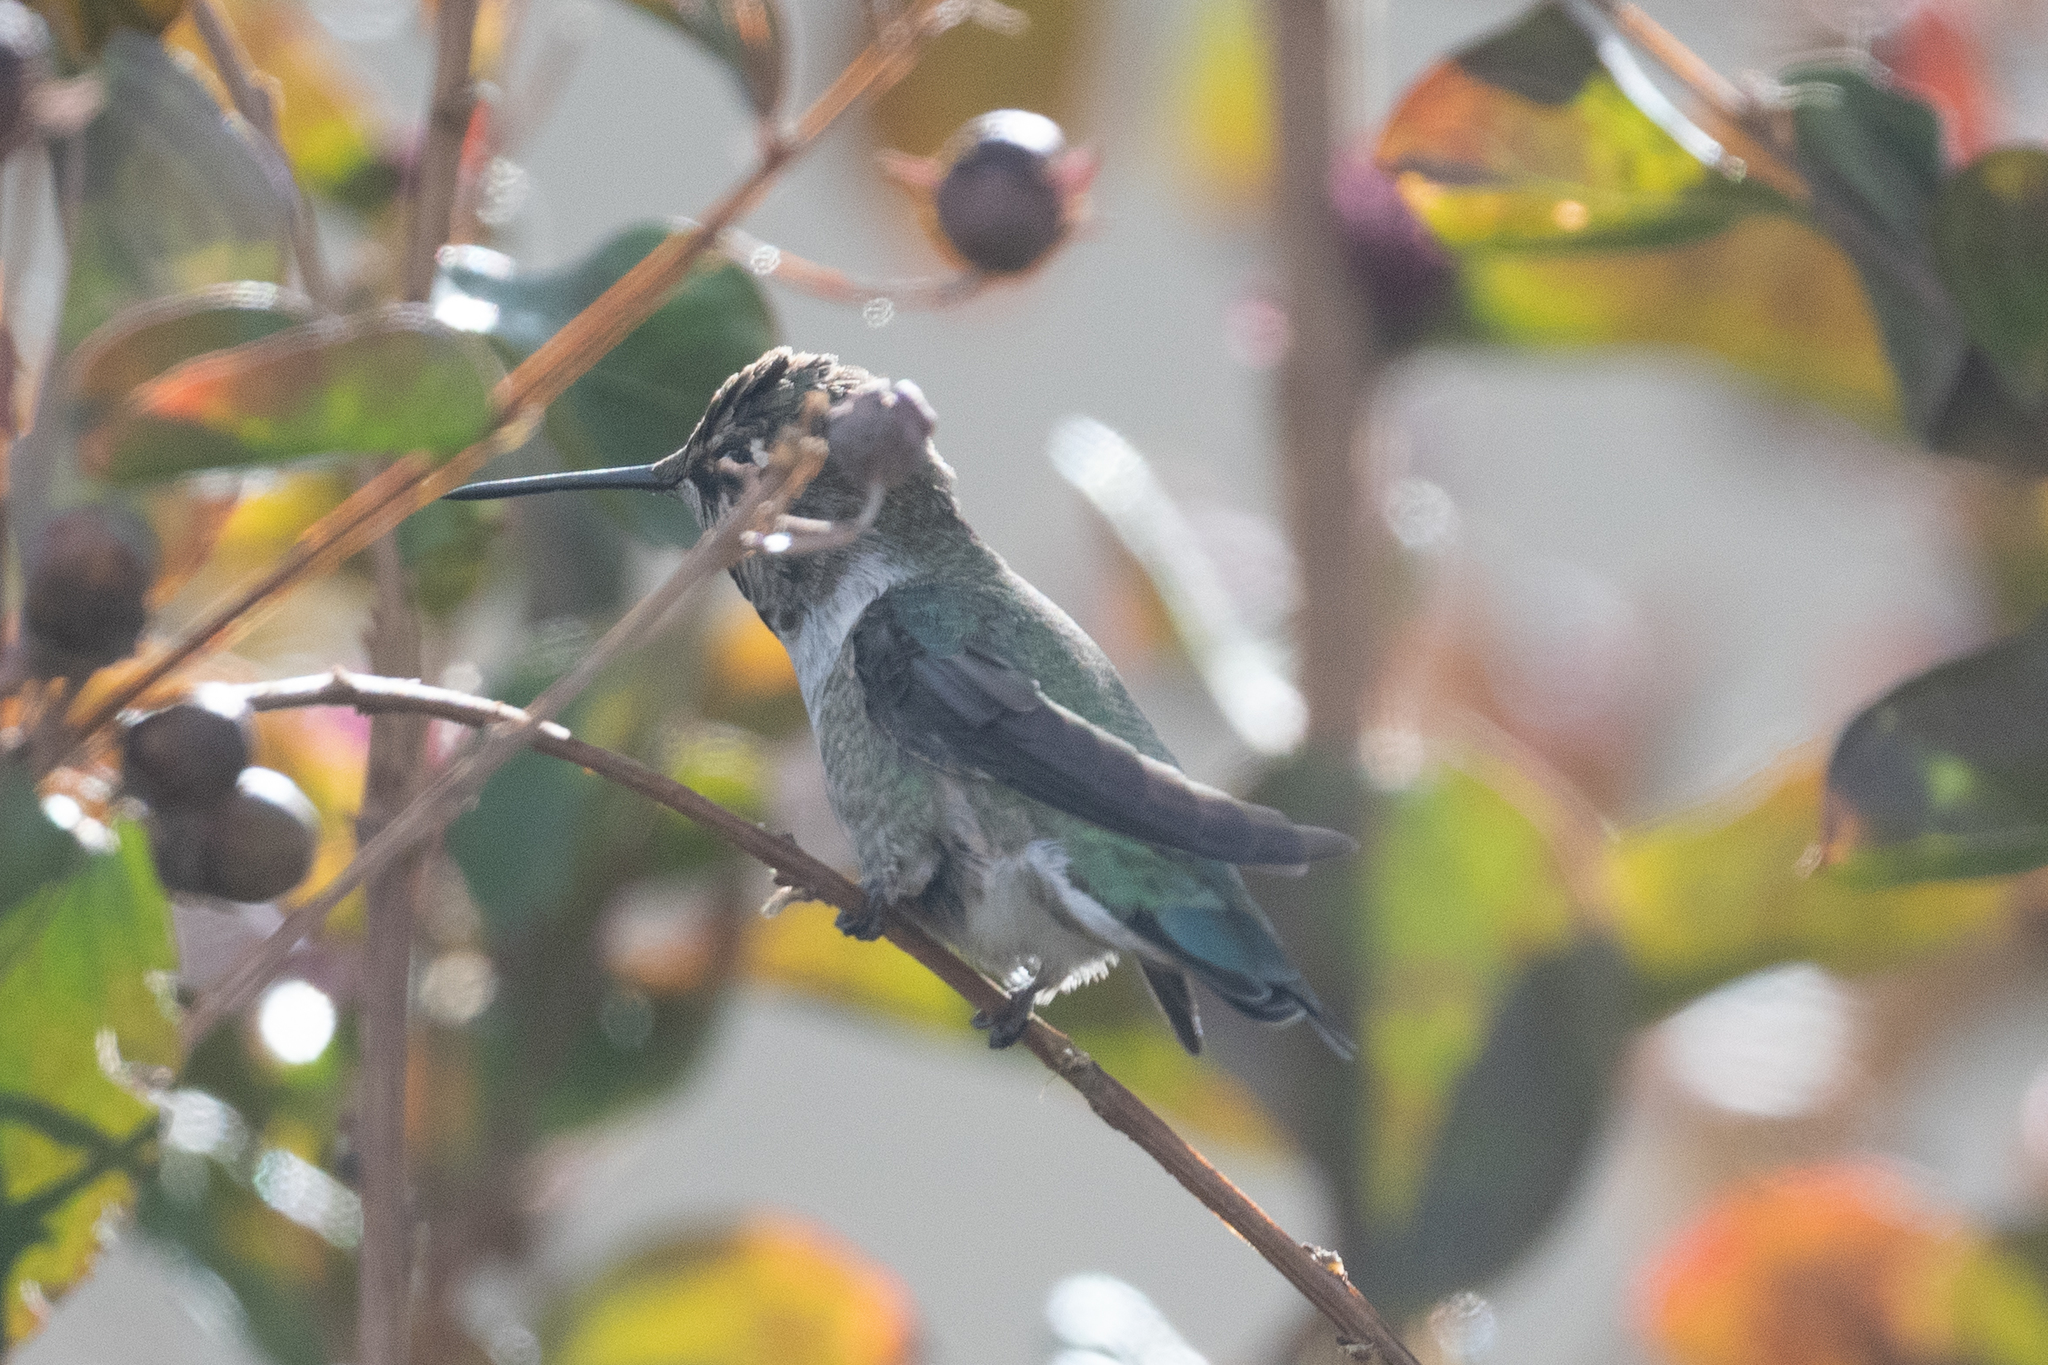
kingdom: Animalia
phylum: Chordata
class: Aves
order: Apodiformes
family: Trochilidae
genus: Calypte
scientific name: Calypte anna
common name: Anna's hummingbird
